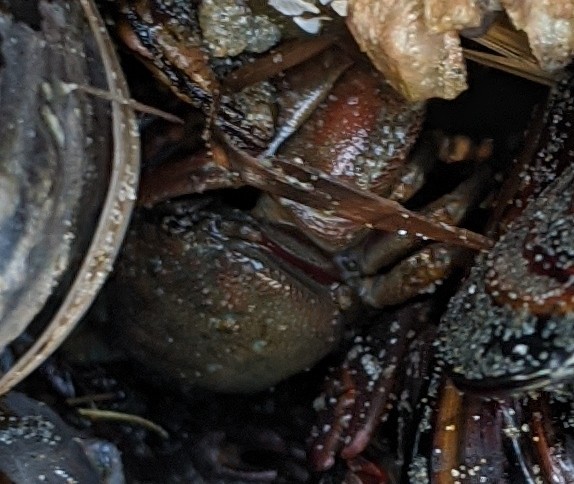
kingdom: Animalia
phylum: Arthropoda
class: Malacostraca
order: Decapoda
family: Porcellanidae
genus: Petrolisthes
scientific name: Petrolisthes cinctipes
